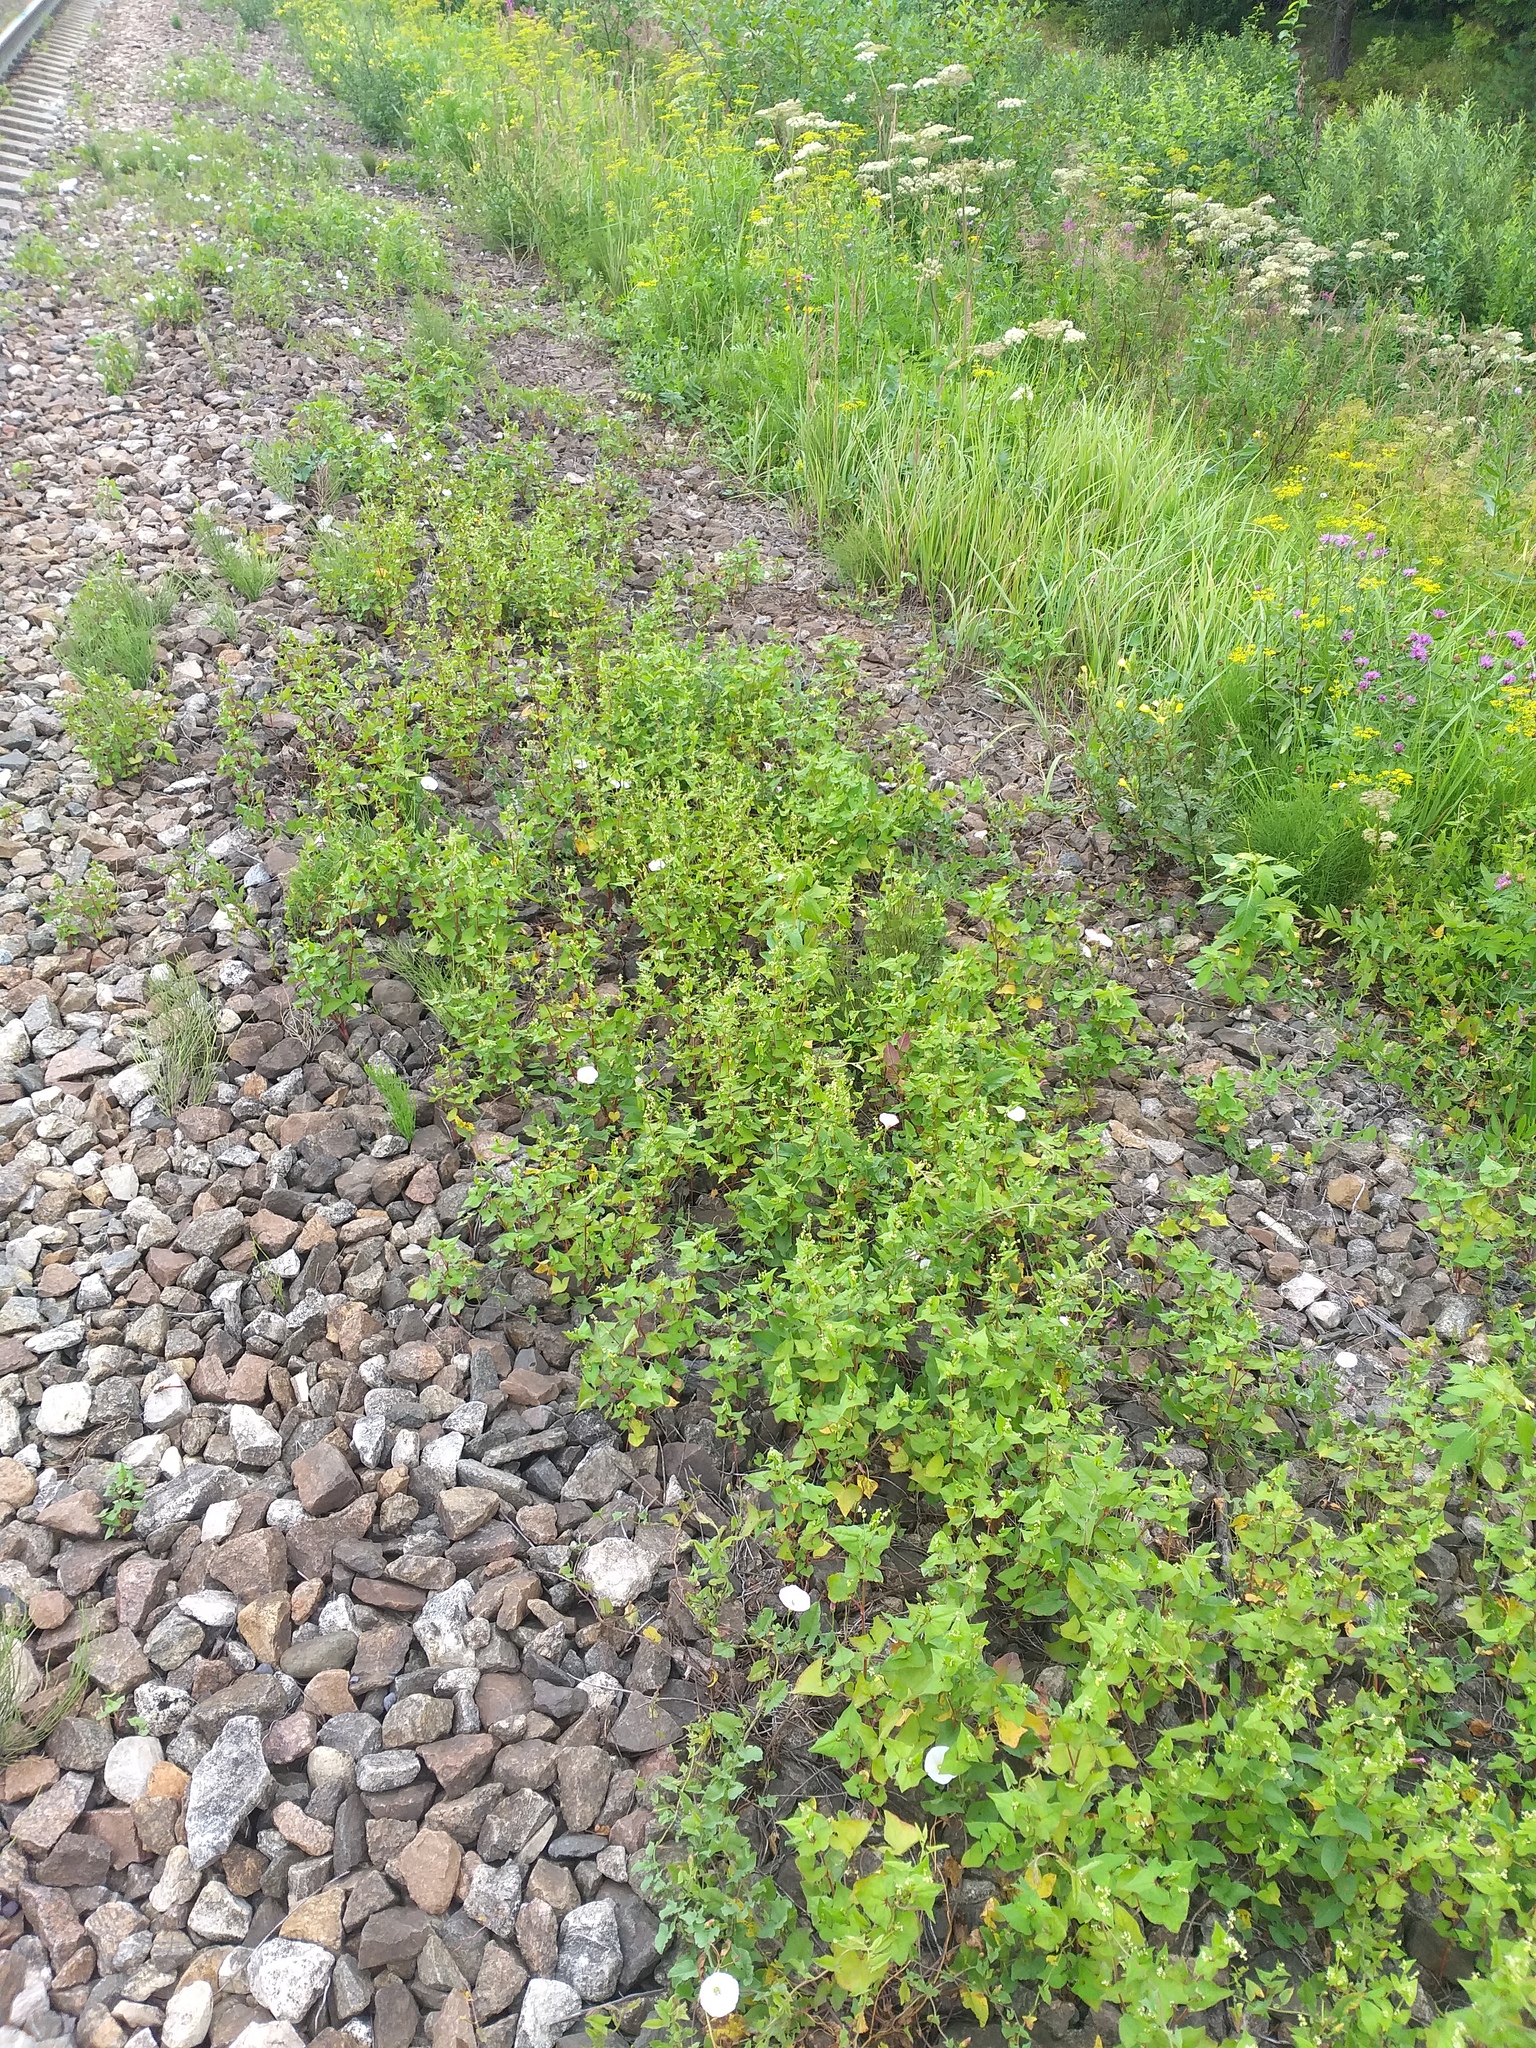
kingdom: Plantae
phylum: Tracheophyta
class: Magnoliopsida
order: Caryophyllales
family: Polygonaceae
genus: Fagopyrum
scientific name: Fagopyrum tataricum
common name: Green buckwheat
